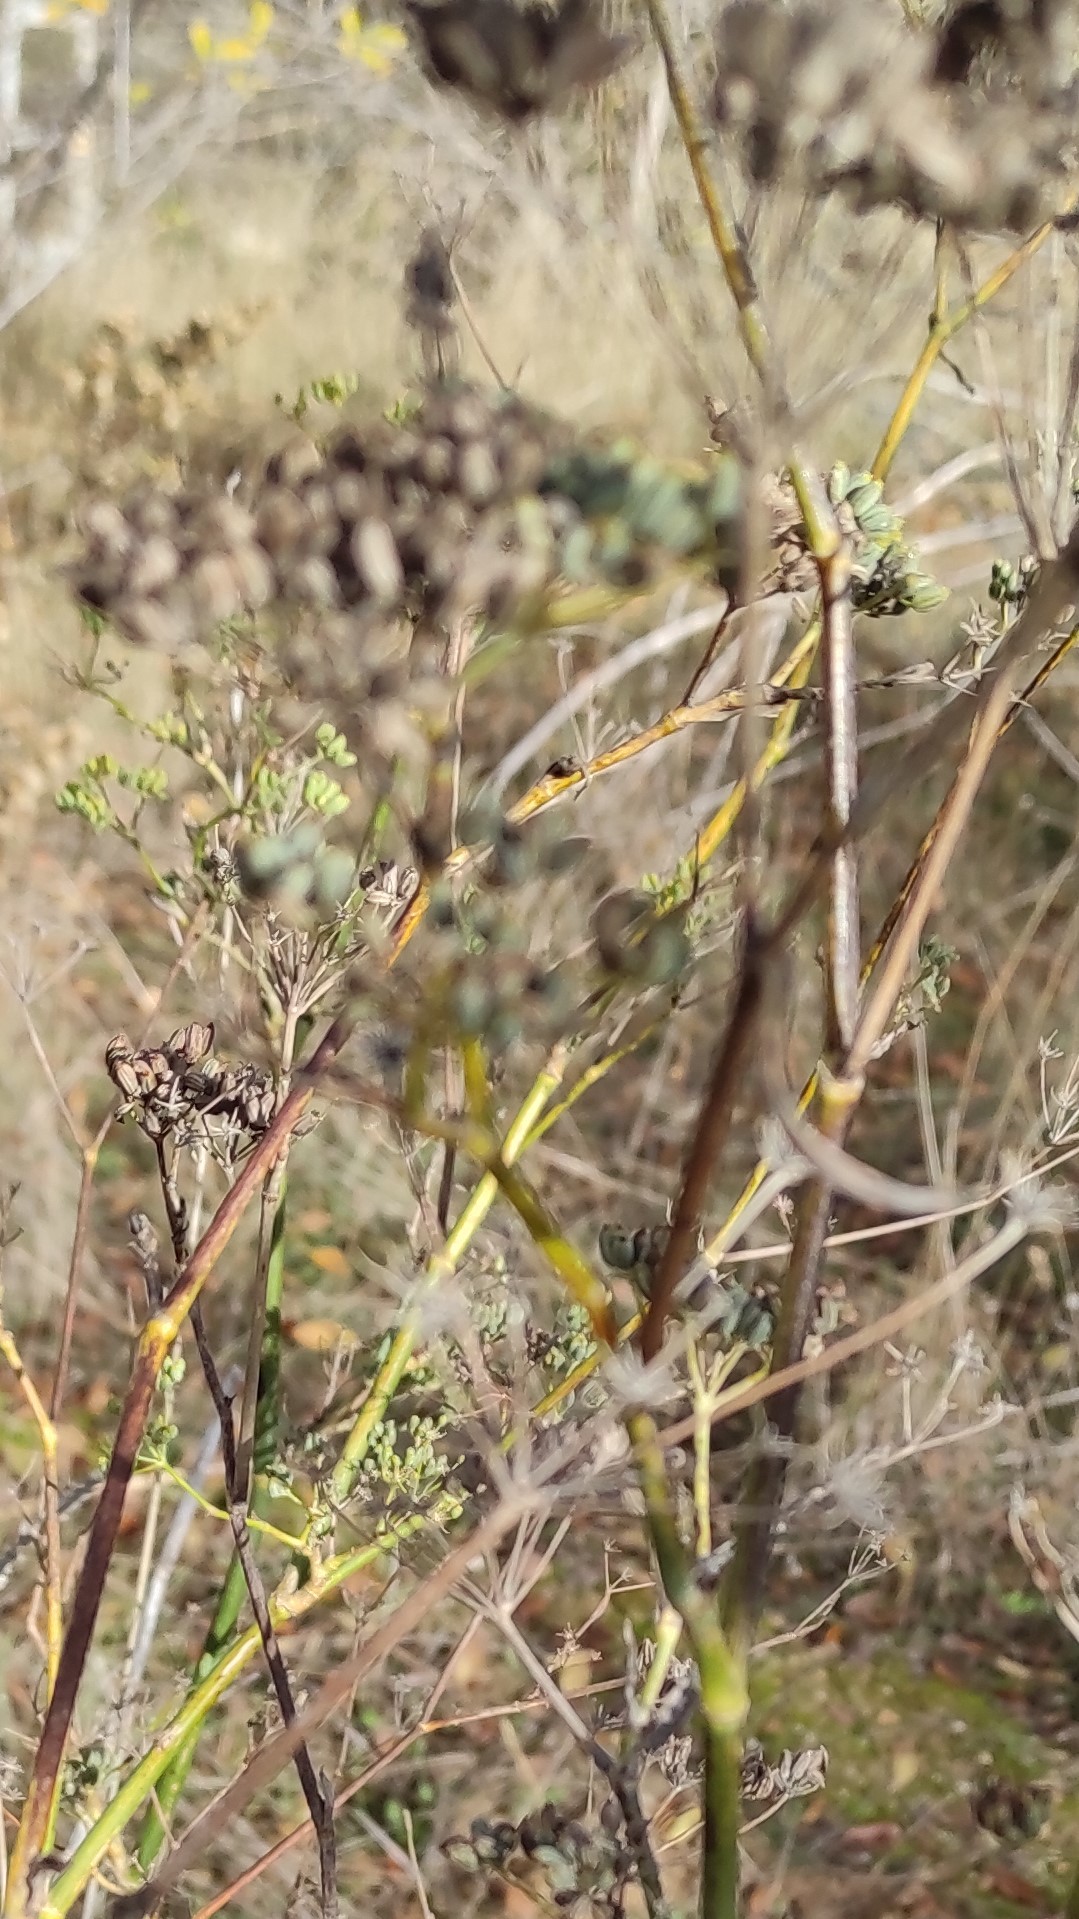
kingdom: Plantae
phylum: Tracheophyta
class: Magnoliopsida
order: Apiales
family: Apiaceae
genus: Foeniculum
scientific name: Foeniculum vulgare
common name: Fennel
